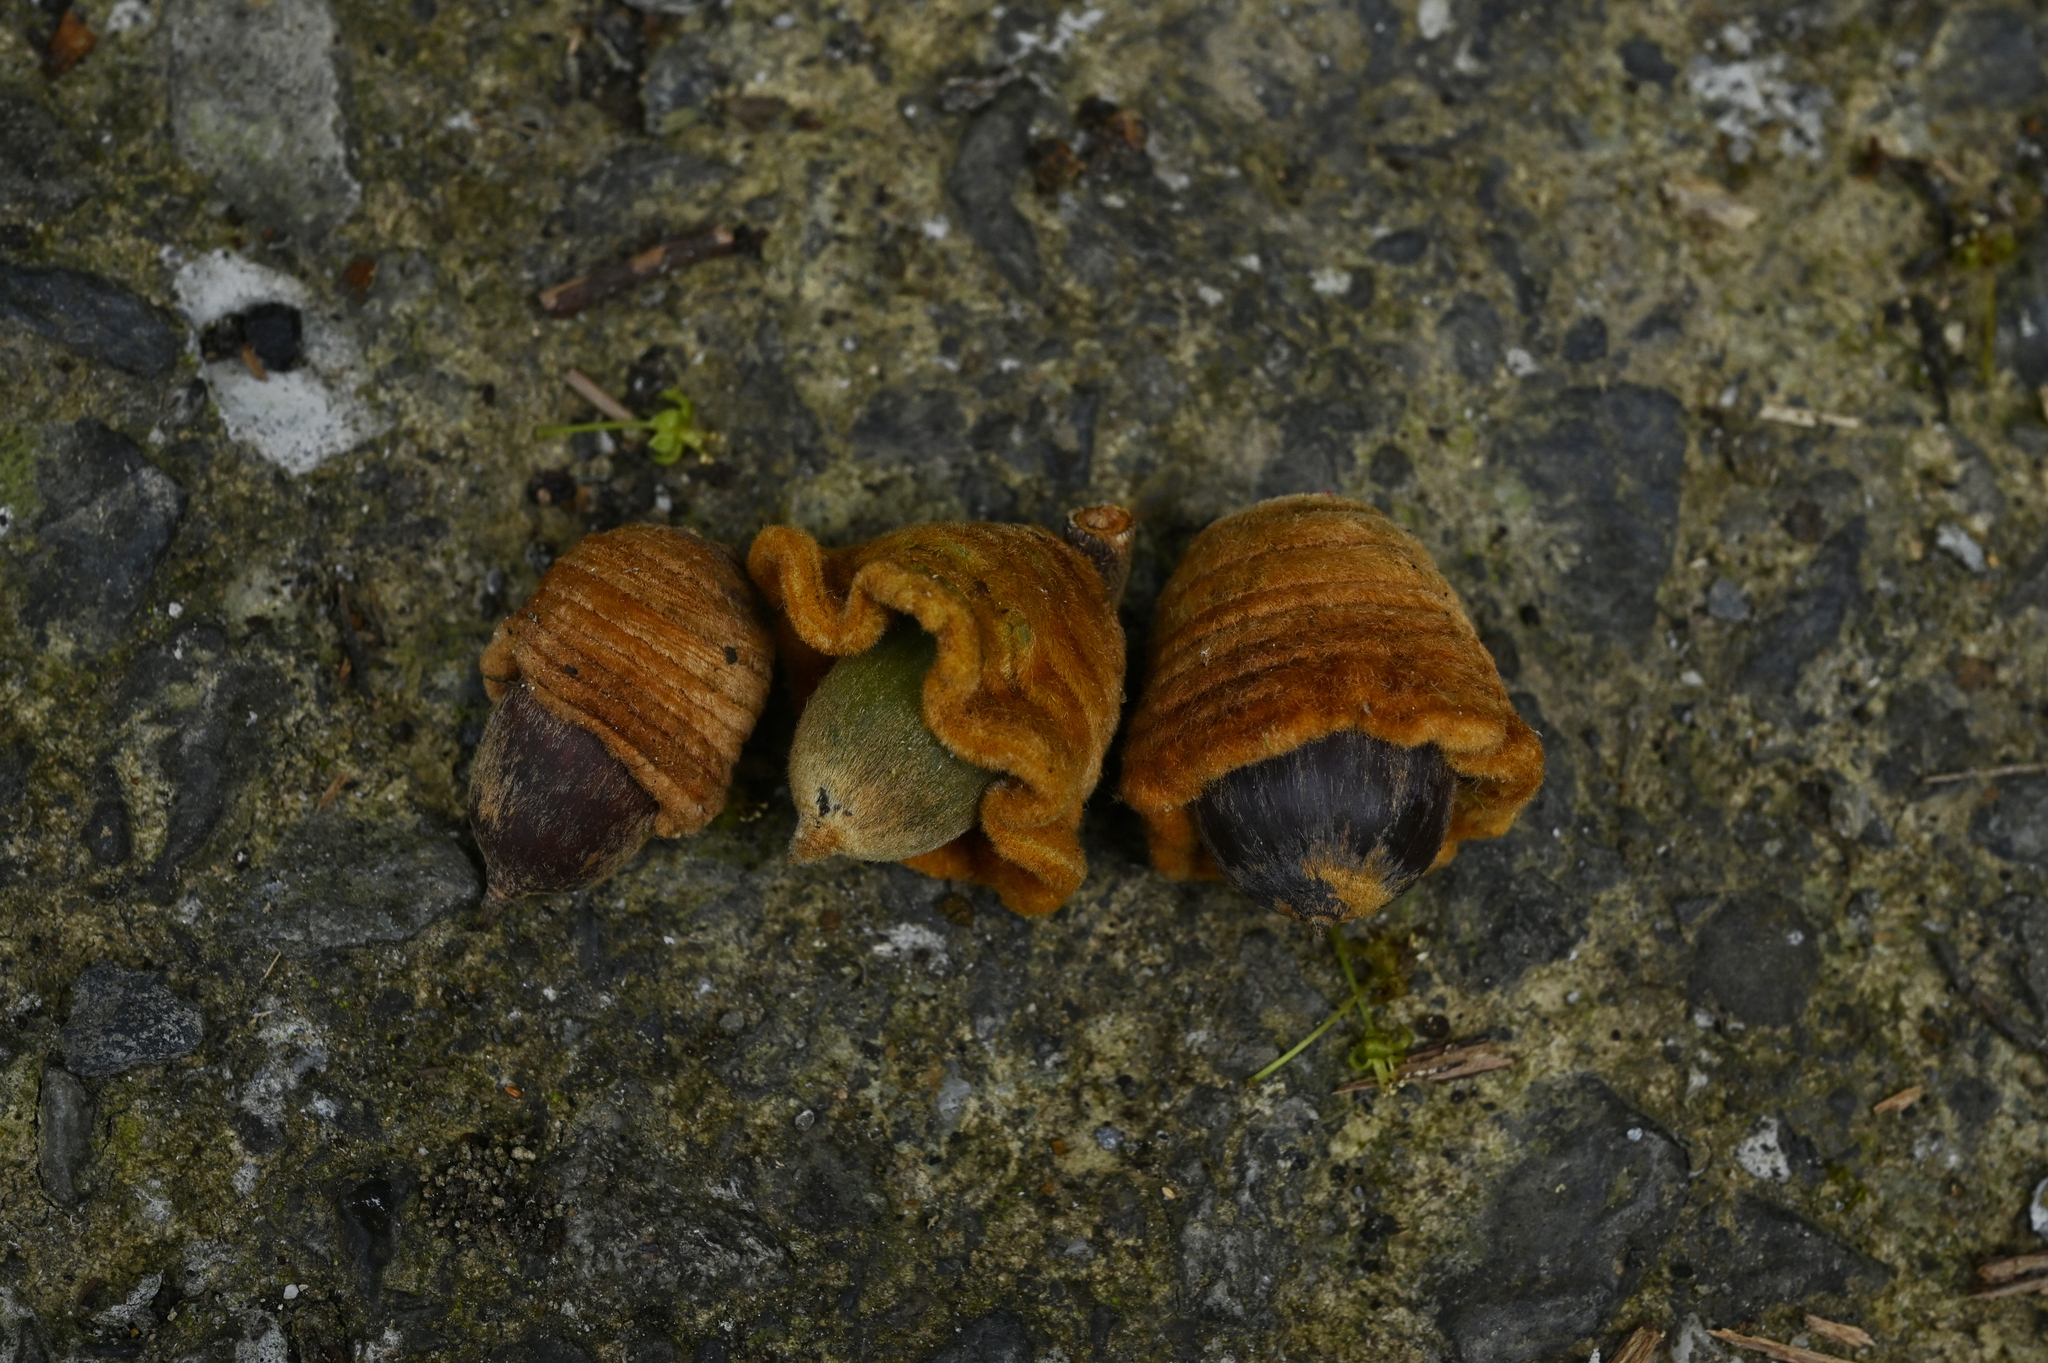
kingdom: Plantae
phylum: Tracheophyta
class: Magnoliopsida
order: Fagales
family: Fagaceae
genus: Quercus
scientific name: Quercus pachyloma
